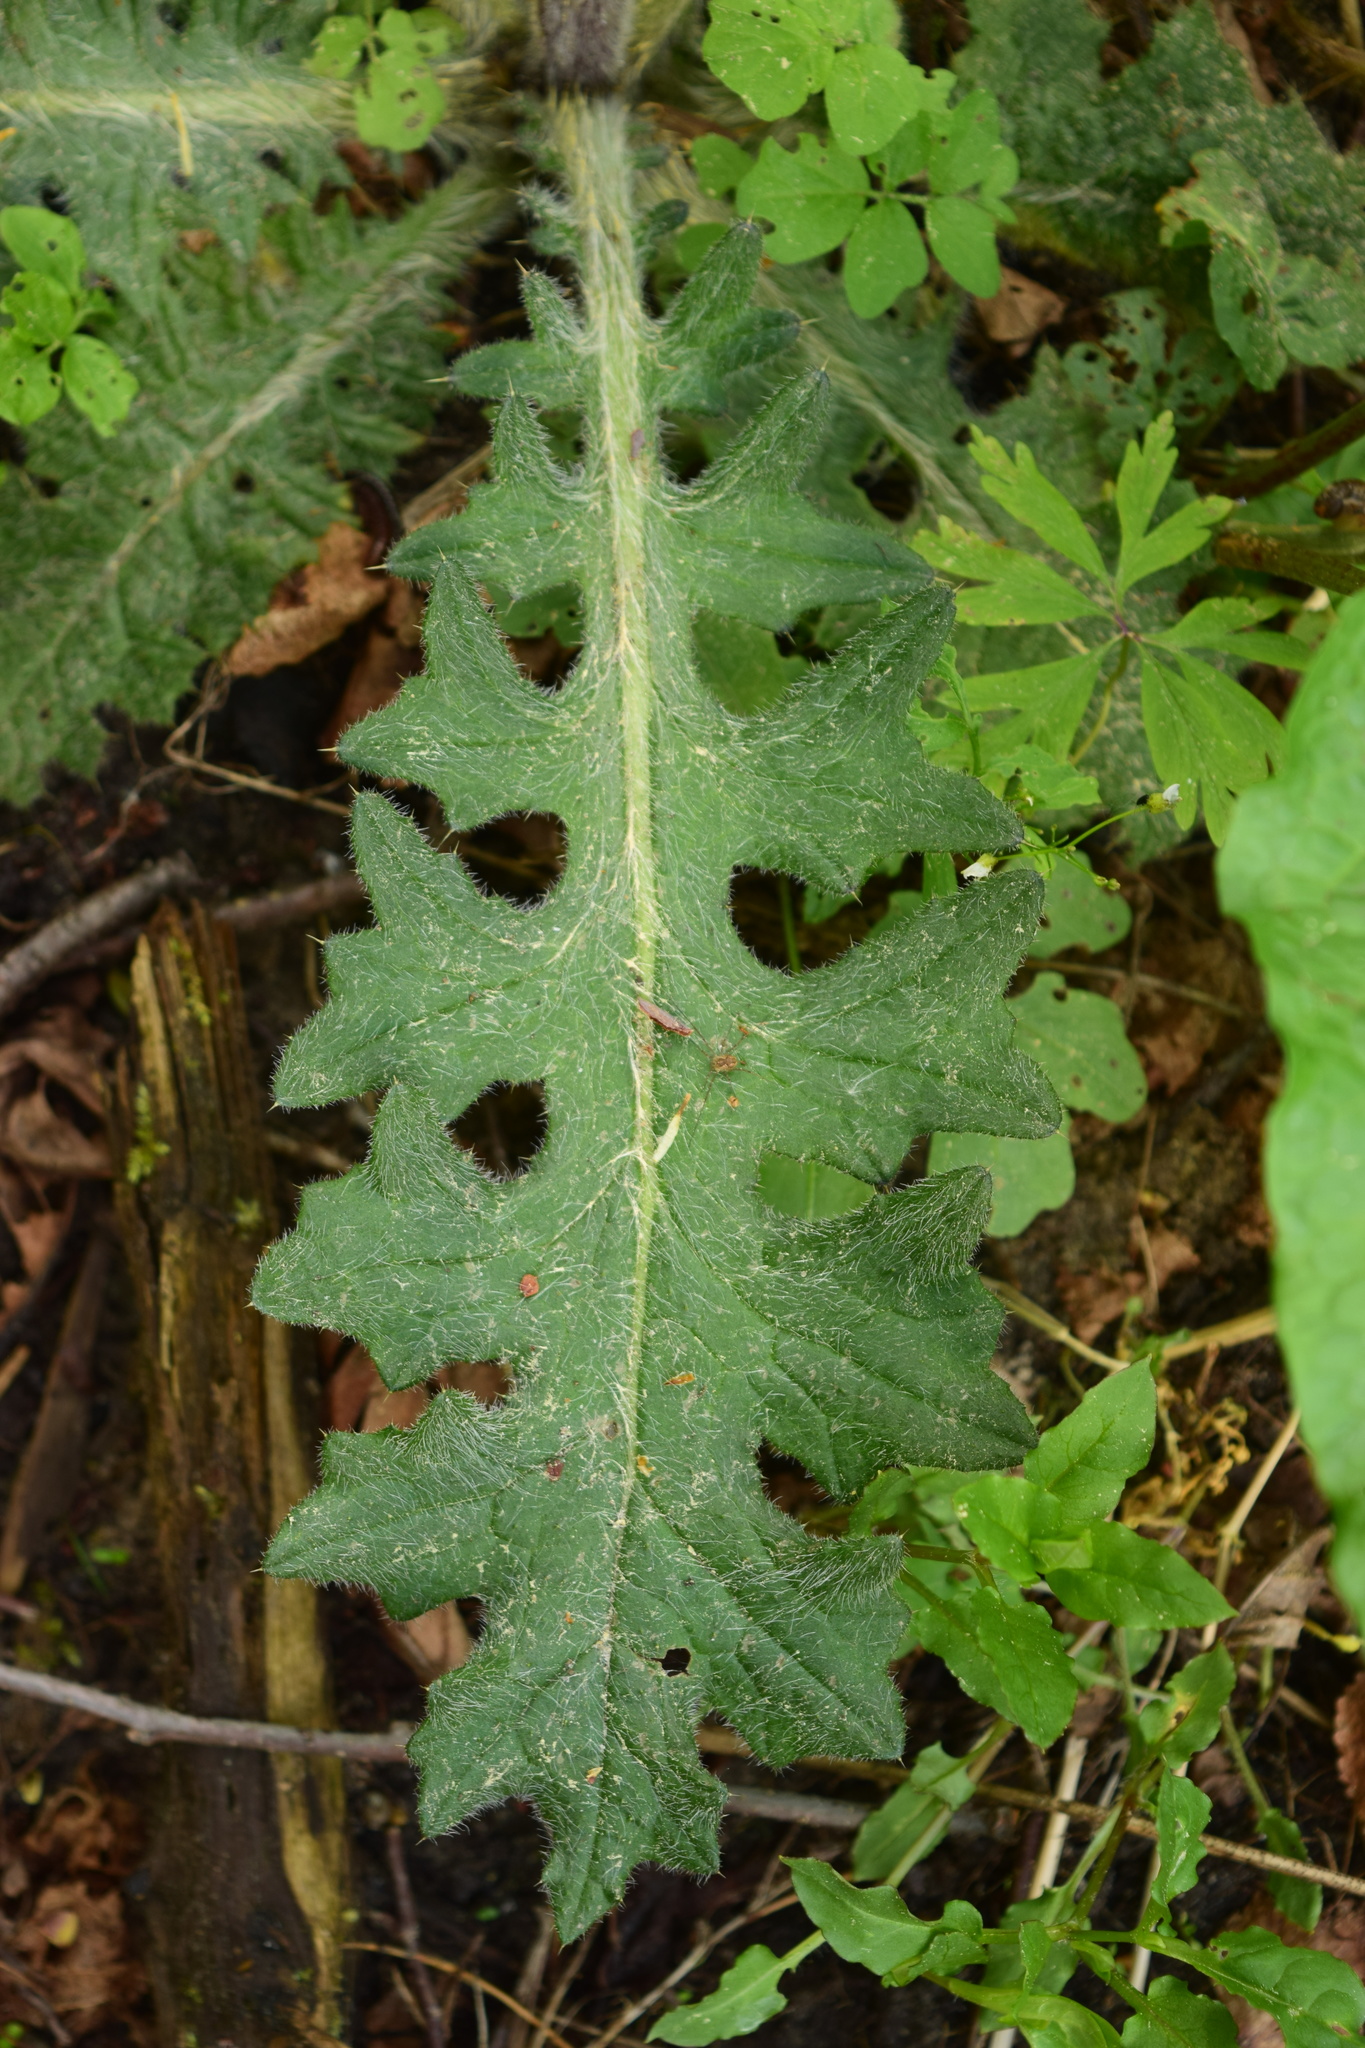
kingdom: Plantae
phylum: Tracheophyta
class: Magnoliopsida
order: Asterales
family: Asteraceae
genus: Cirsium
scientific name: Cirsium vulgare
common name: Bull thistle
